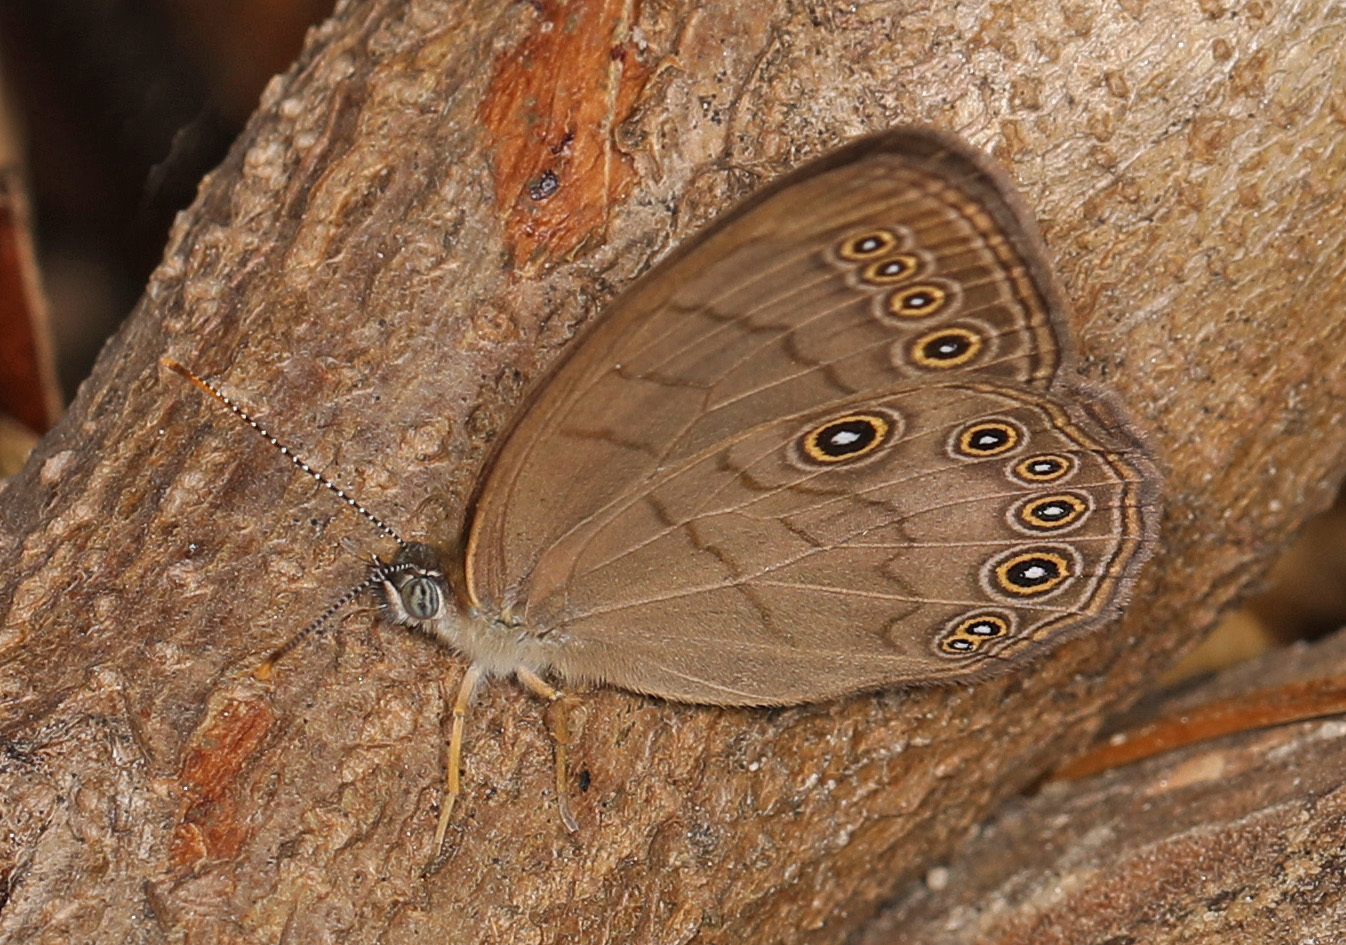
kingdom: Animalia
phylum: Arthropoda
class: Insecta
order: Lepidoptera
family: Nymphalidae
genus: Lethe
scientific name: Lethe eurydice
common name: Eyed brown
